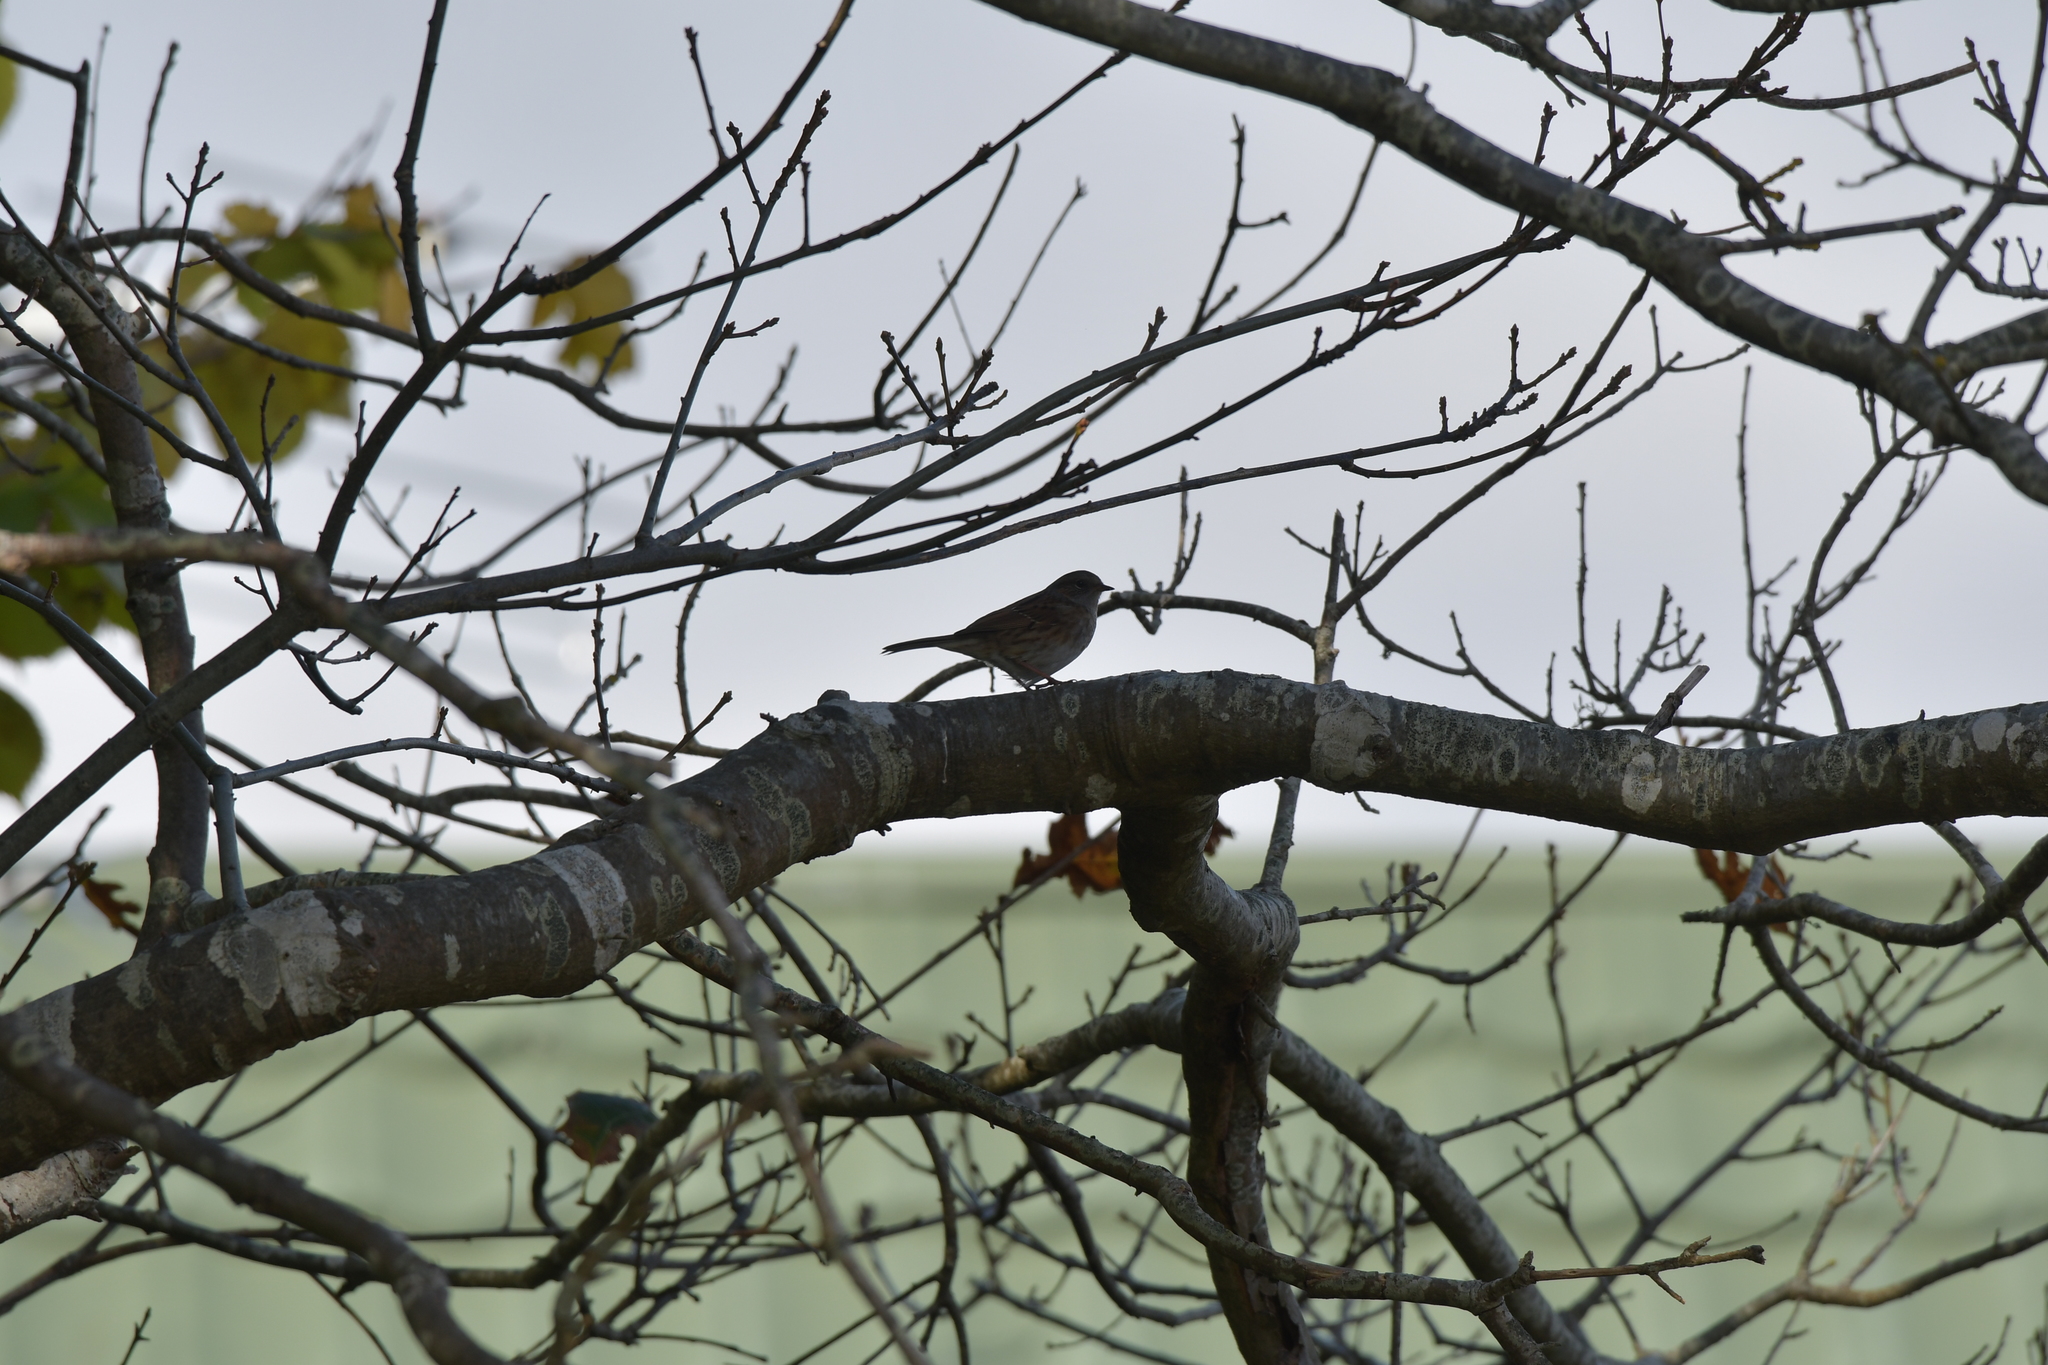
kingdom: Animalia
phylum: Chordata
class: Aves
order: Passeriformes
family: Prunellidae
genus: Prunella
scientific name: Prunella modularis
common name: Dunnock
